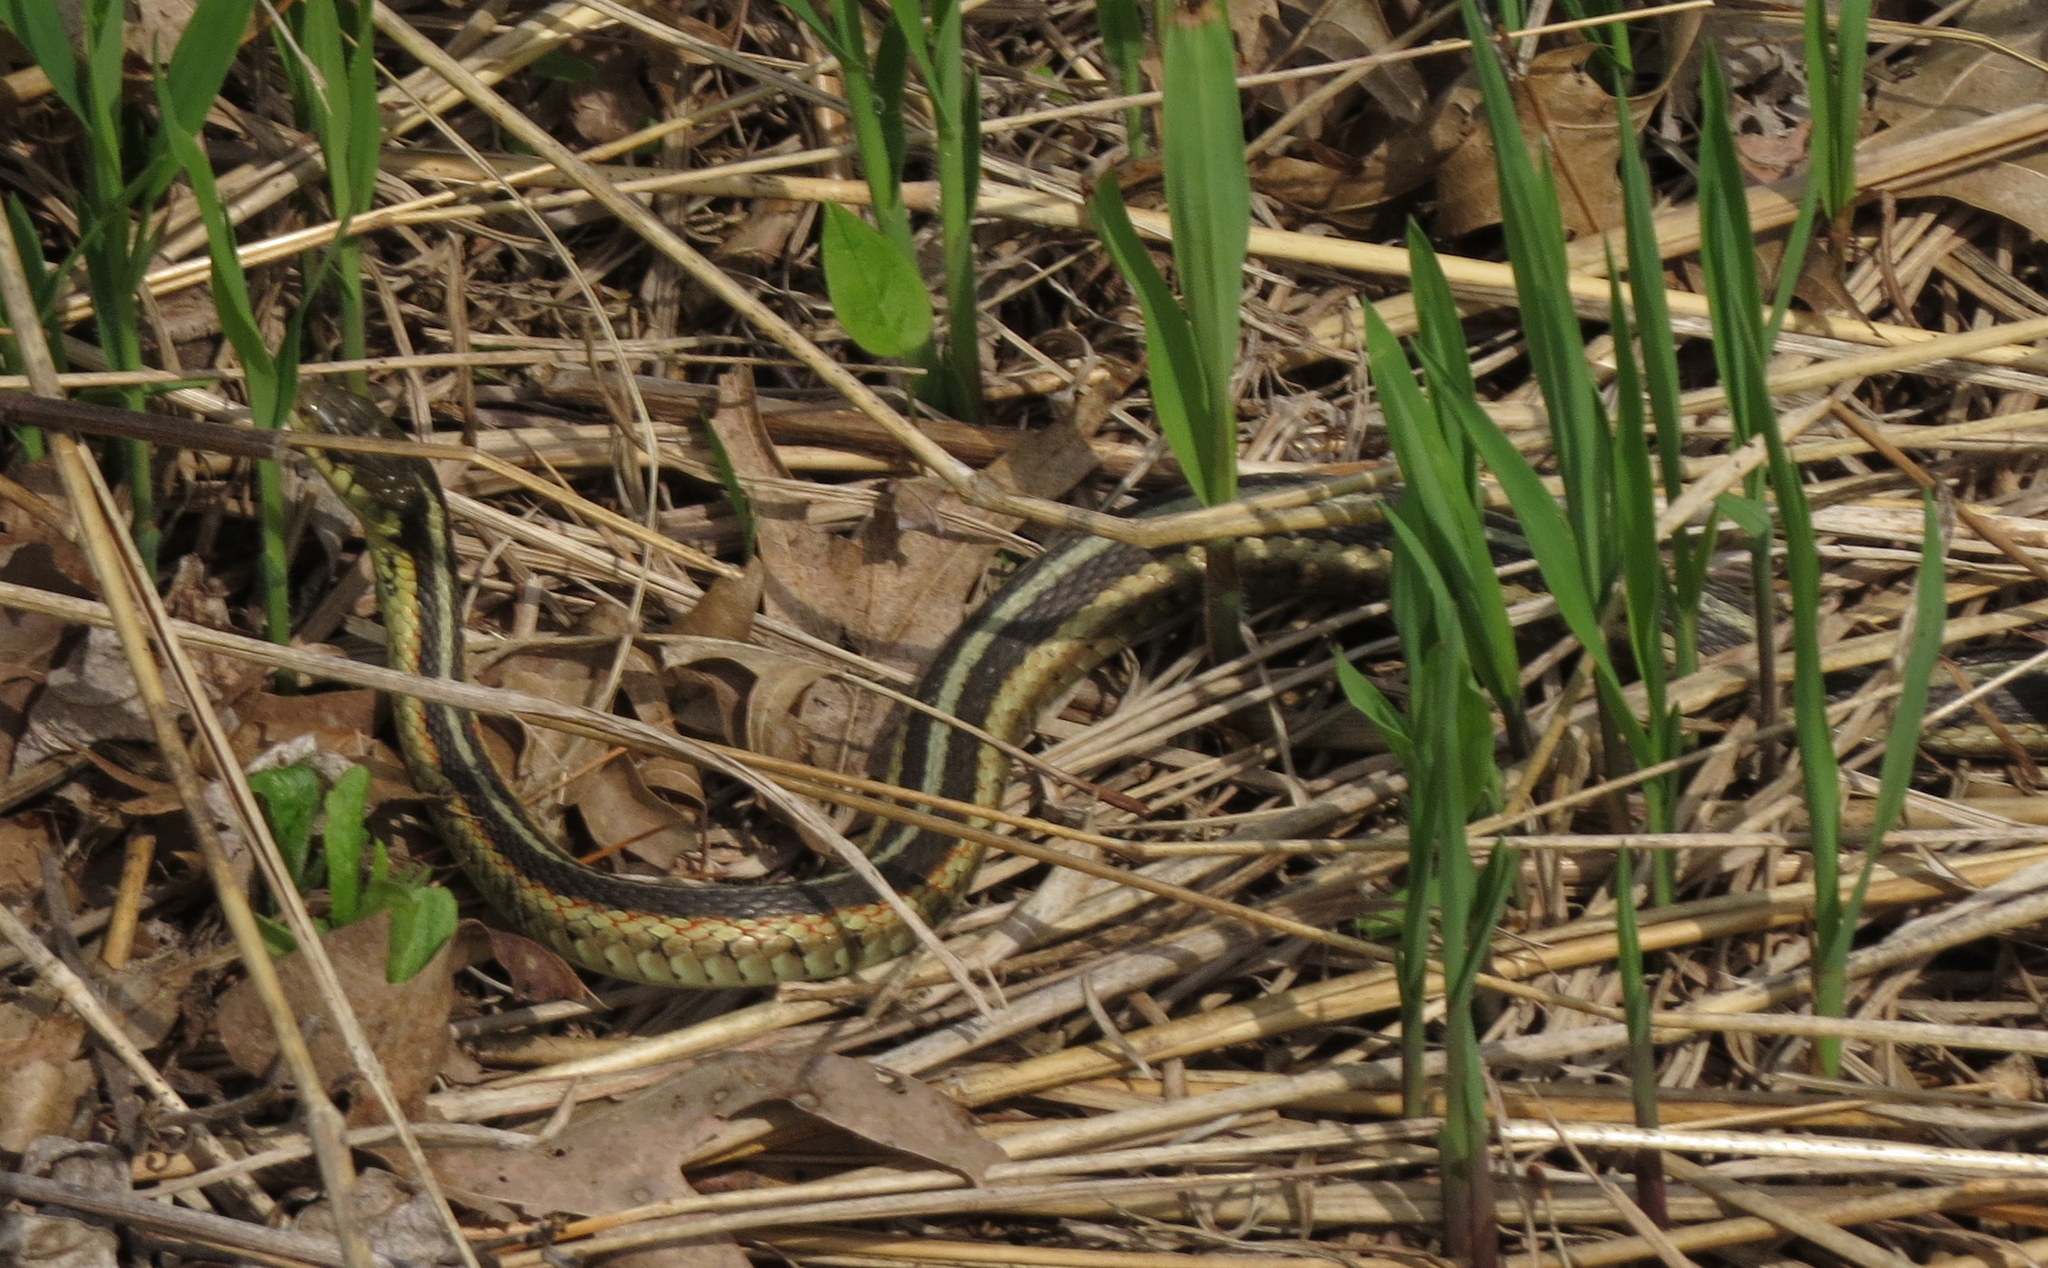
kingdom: Animalia
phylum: Chordata
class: Squamata
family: Colubridae
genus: Thamnophis
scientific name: Thamnophis sirtalis
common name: Common garter snake
